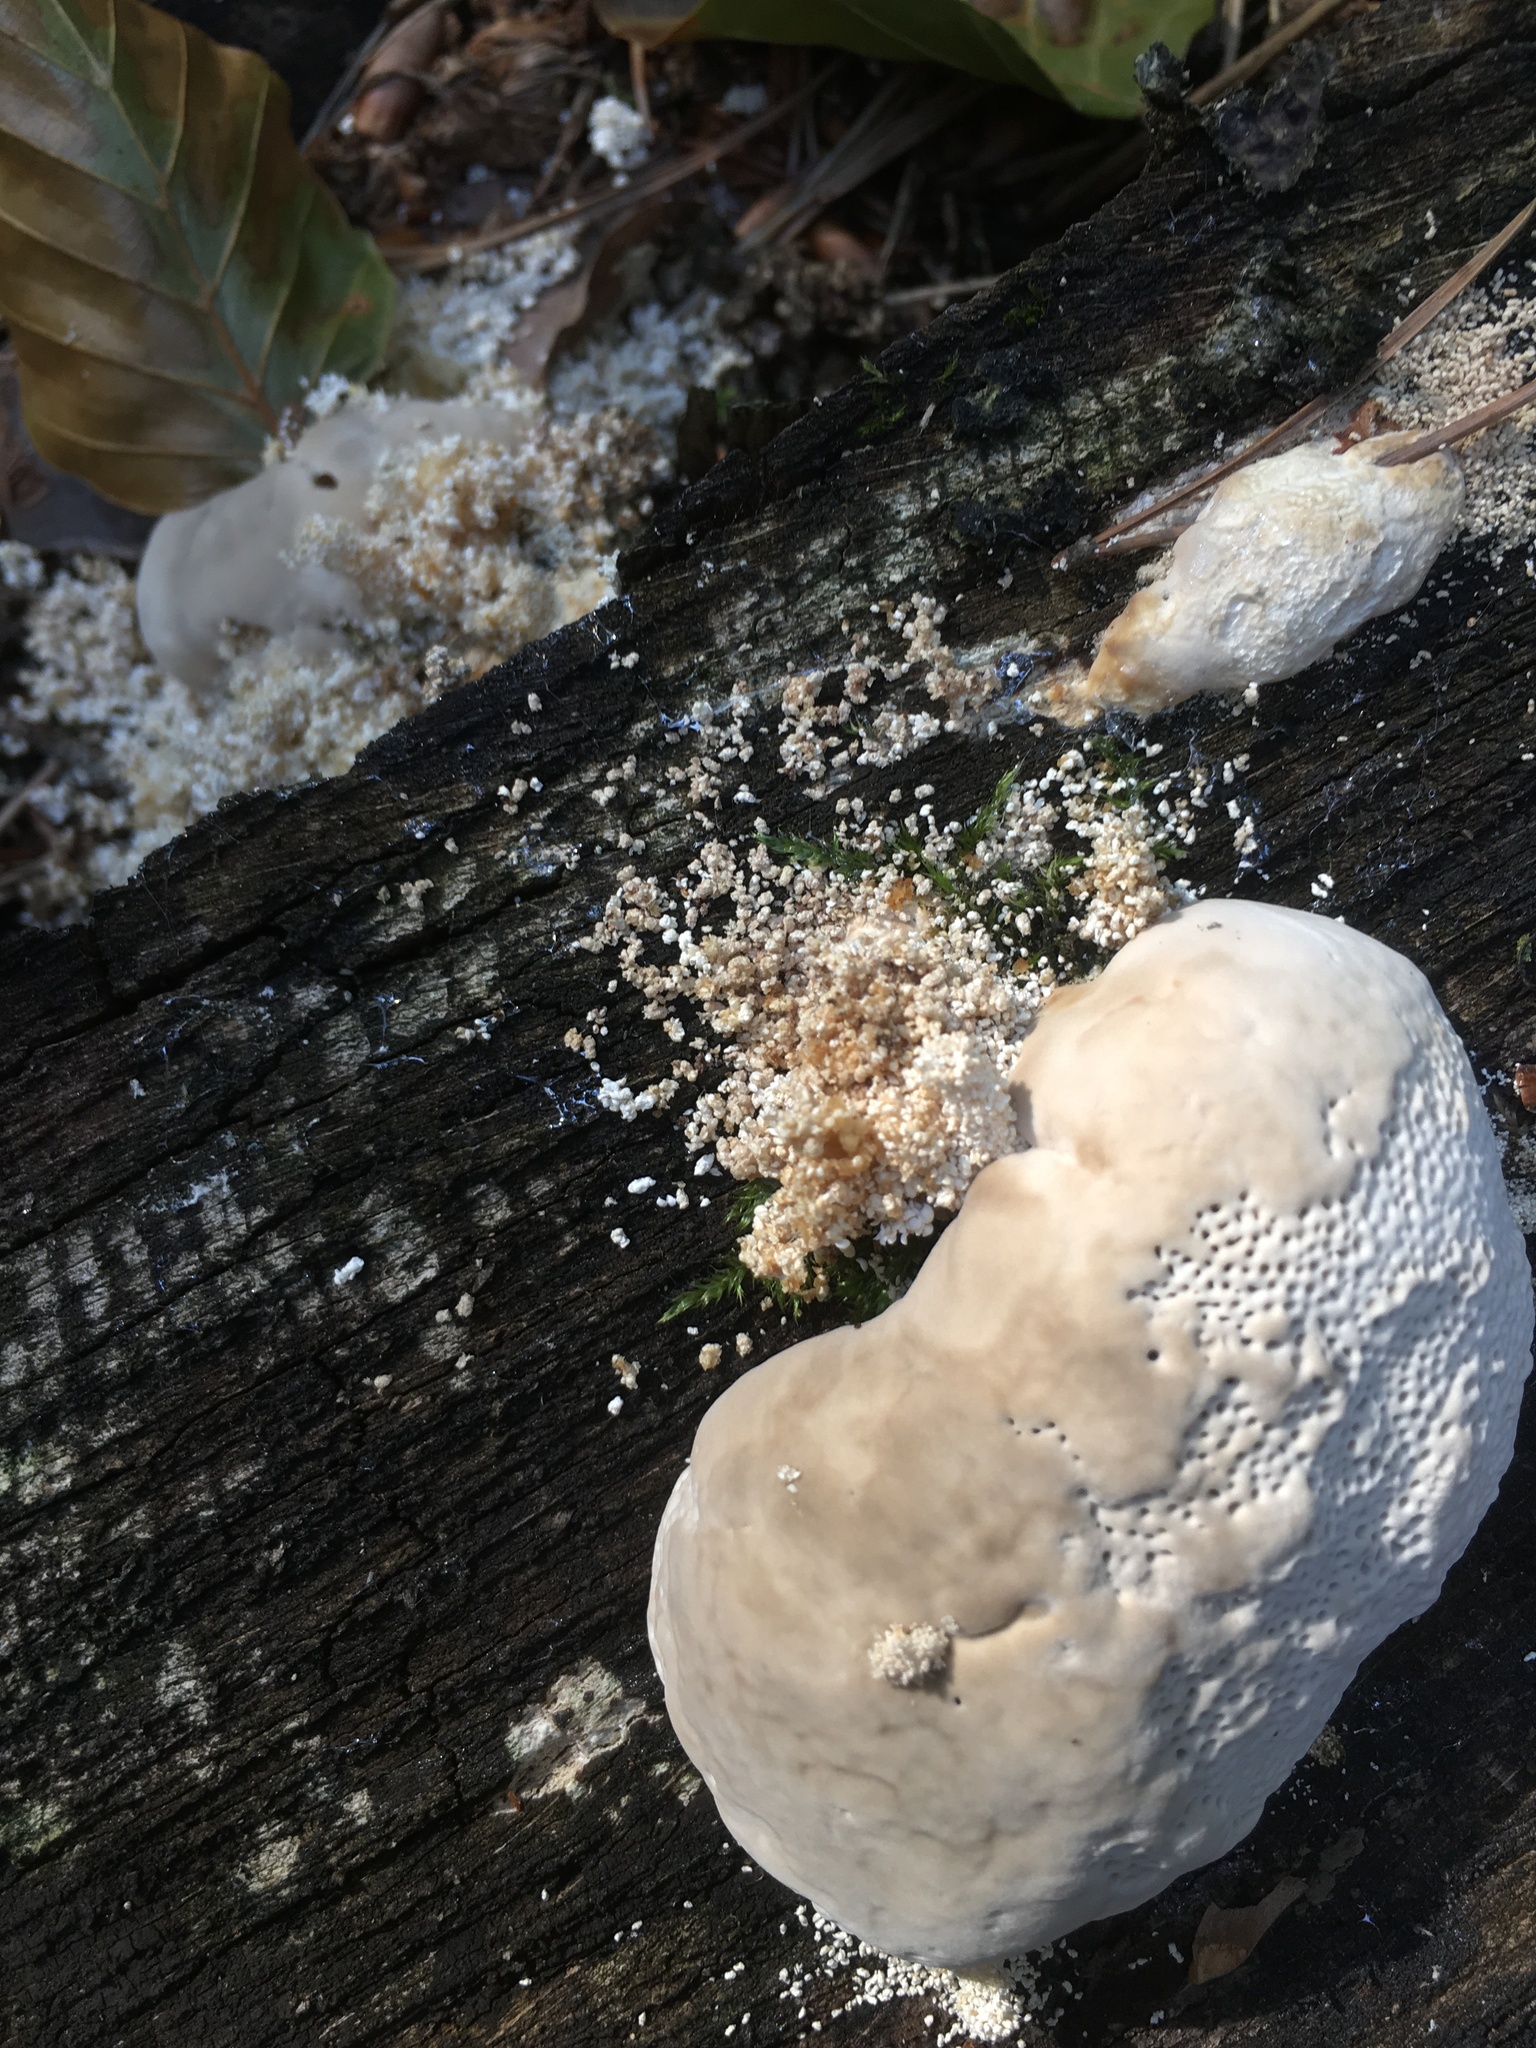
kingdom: Fungi
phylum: Basidiomycota
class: Agaricomycetes
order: Polyporales
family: Polyporaceae
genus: Trametes
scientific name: Trametes gibbosa
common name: Lumpy bracket
